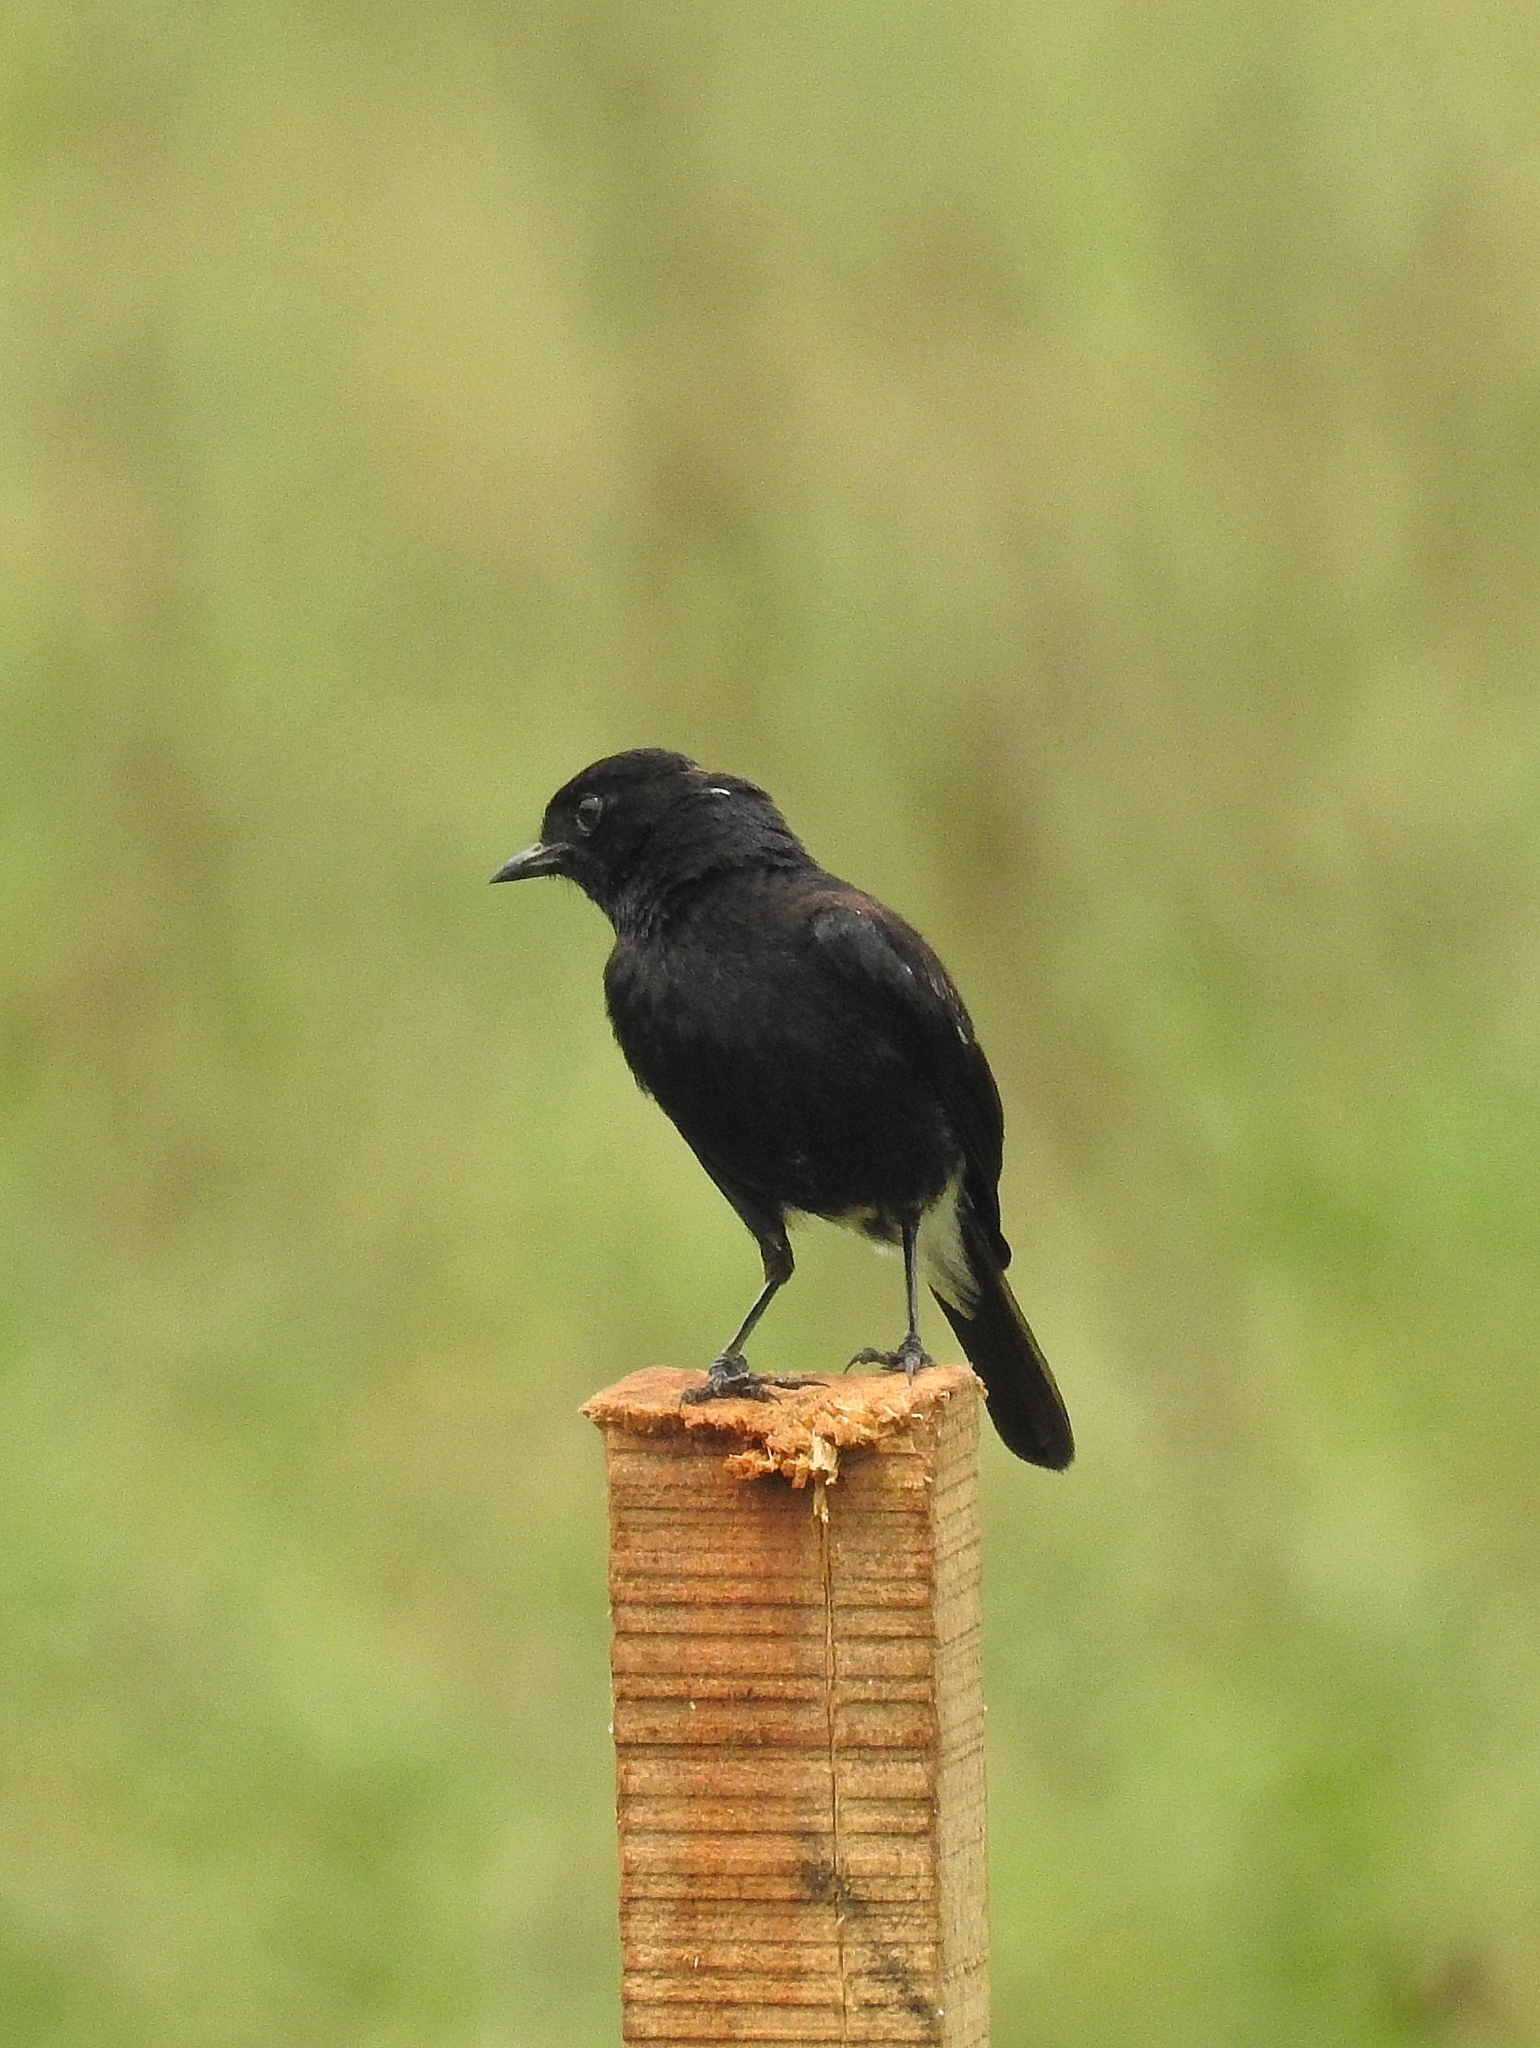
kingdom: Animalia
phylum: Chordata
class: Aves
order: Passeriformes
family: Muscicapidae
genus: Saxicola
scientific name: Saxicola caprata
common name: Pied bush chat
